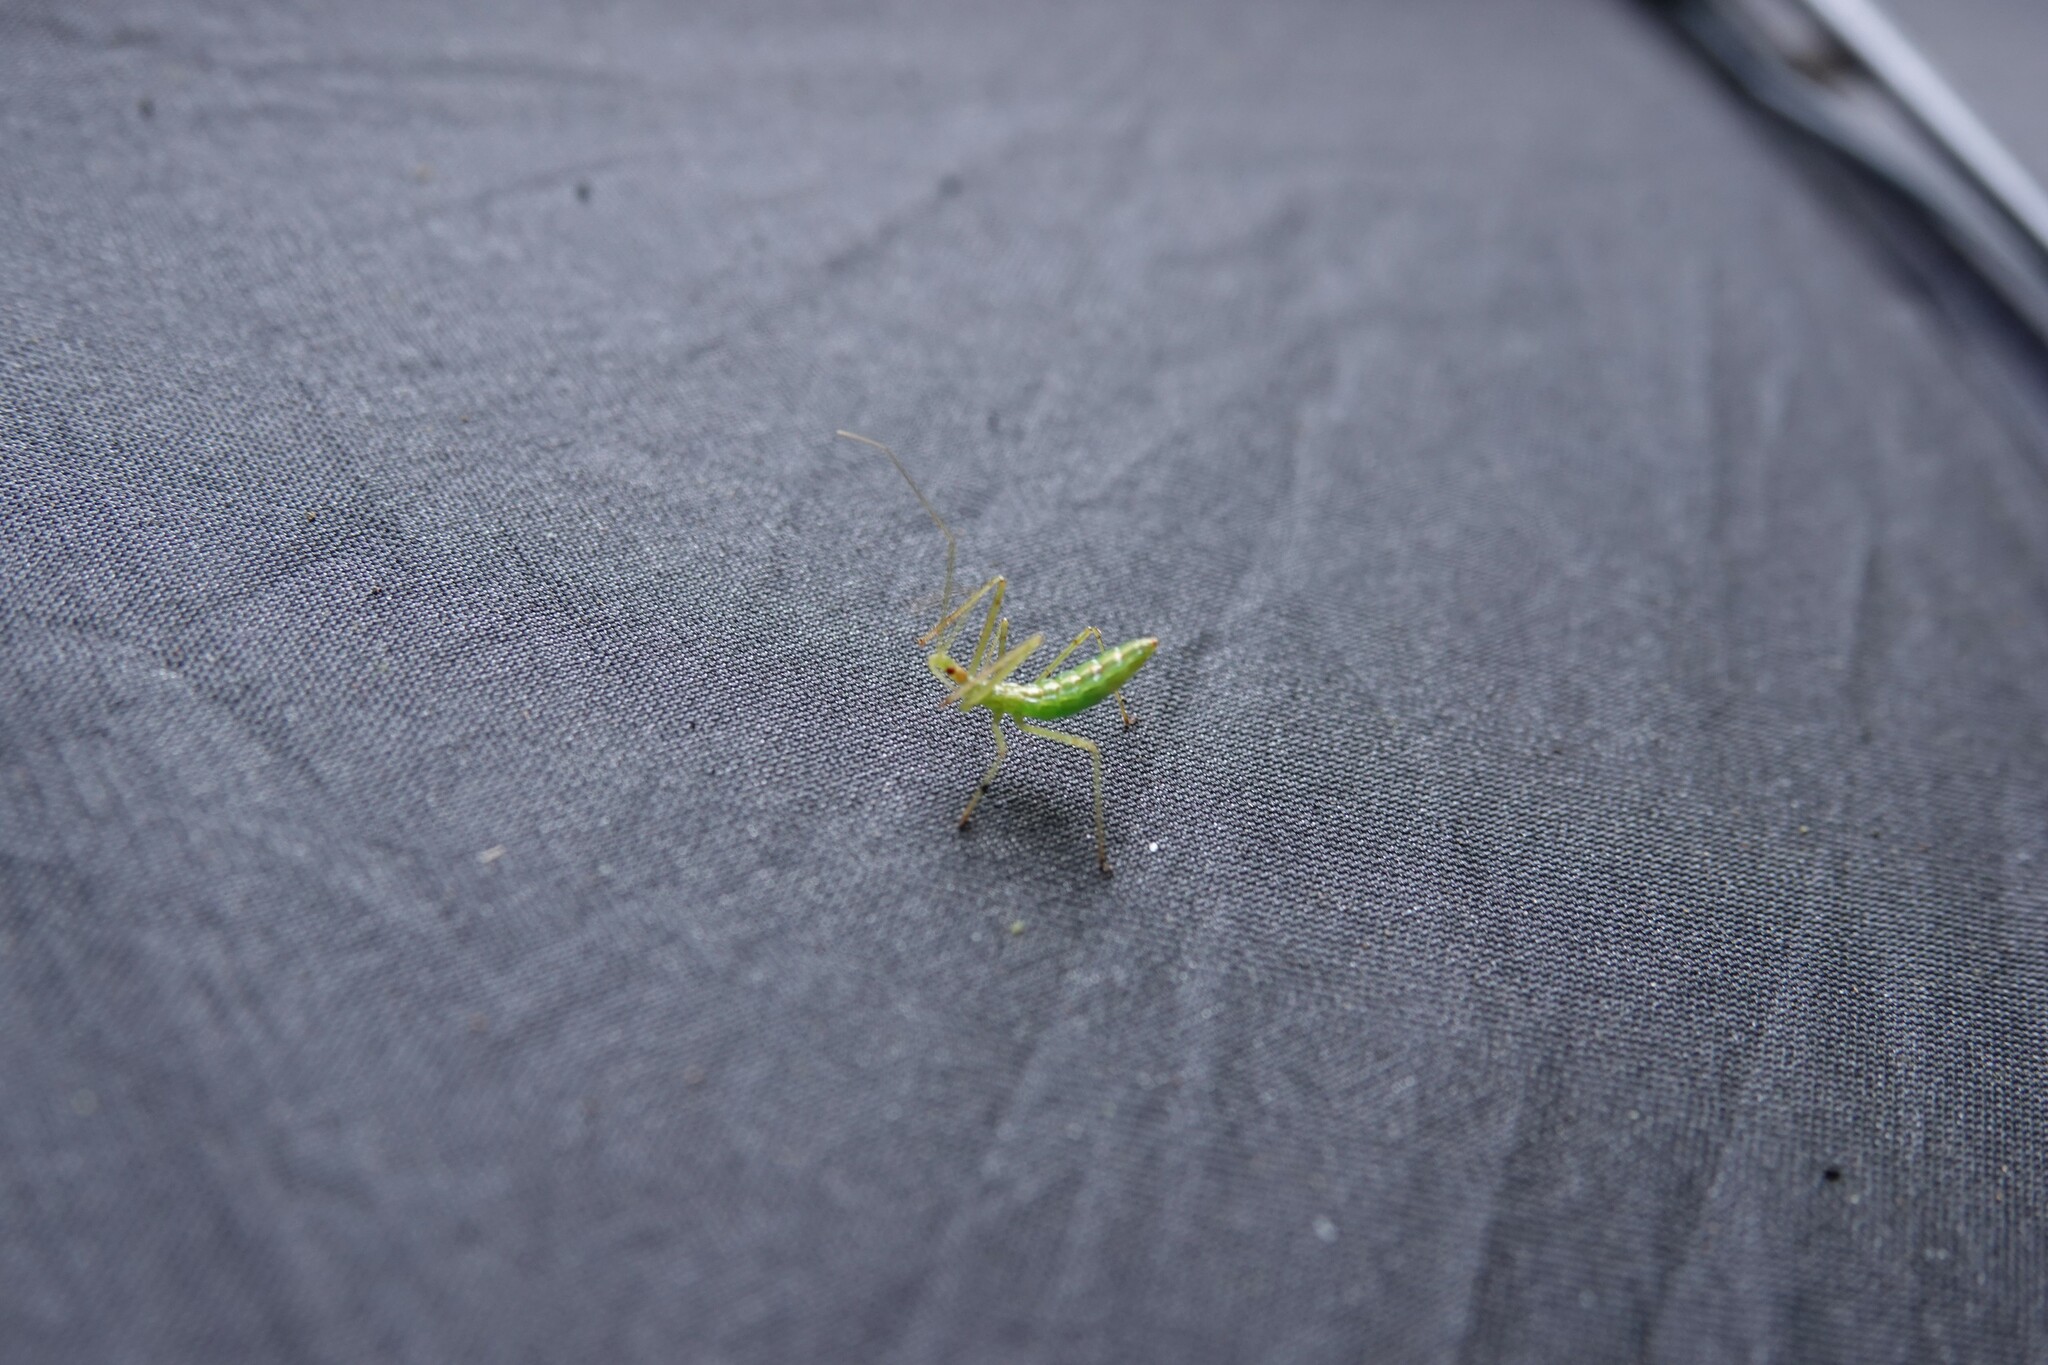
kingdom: Animalia
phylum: Arthropoda
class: Insecta
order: Hemiptera
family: Reduviidae
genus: Zelus
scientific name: Zelus luridus
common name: Pale green assassin bug
